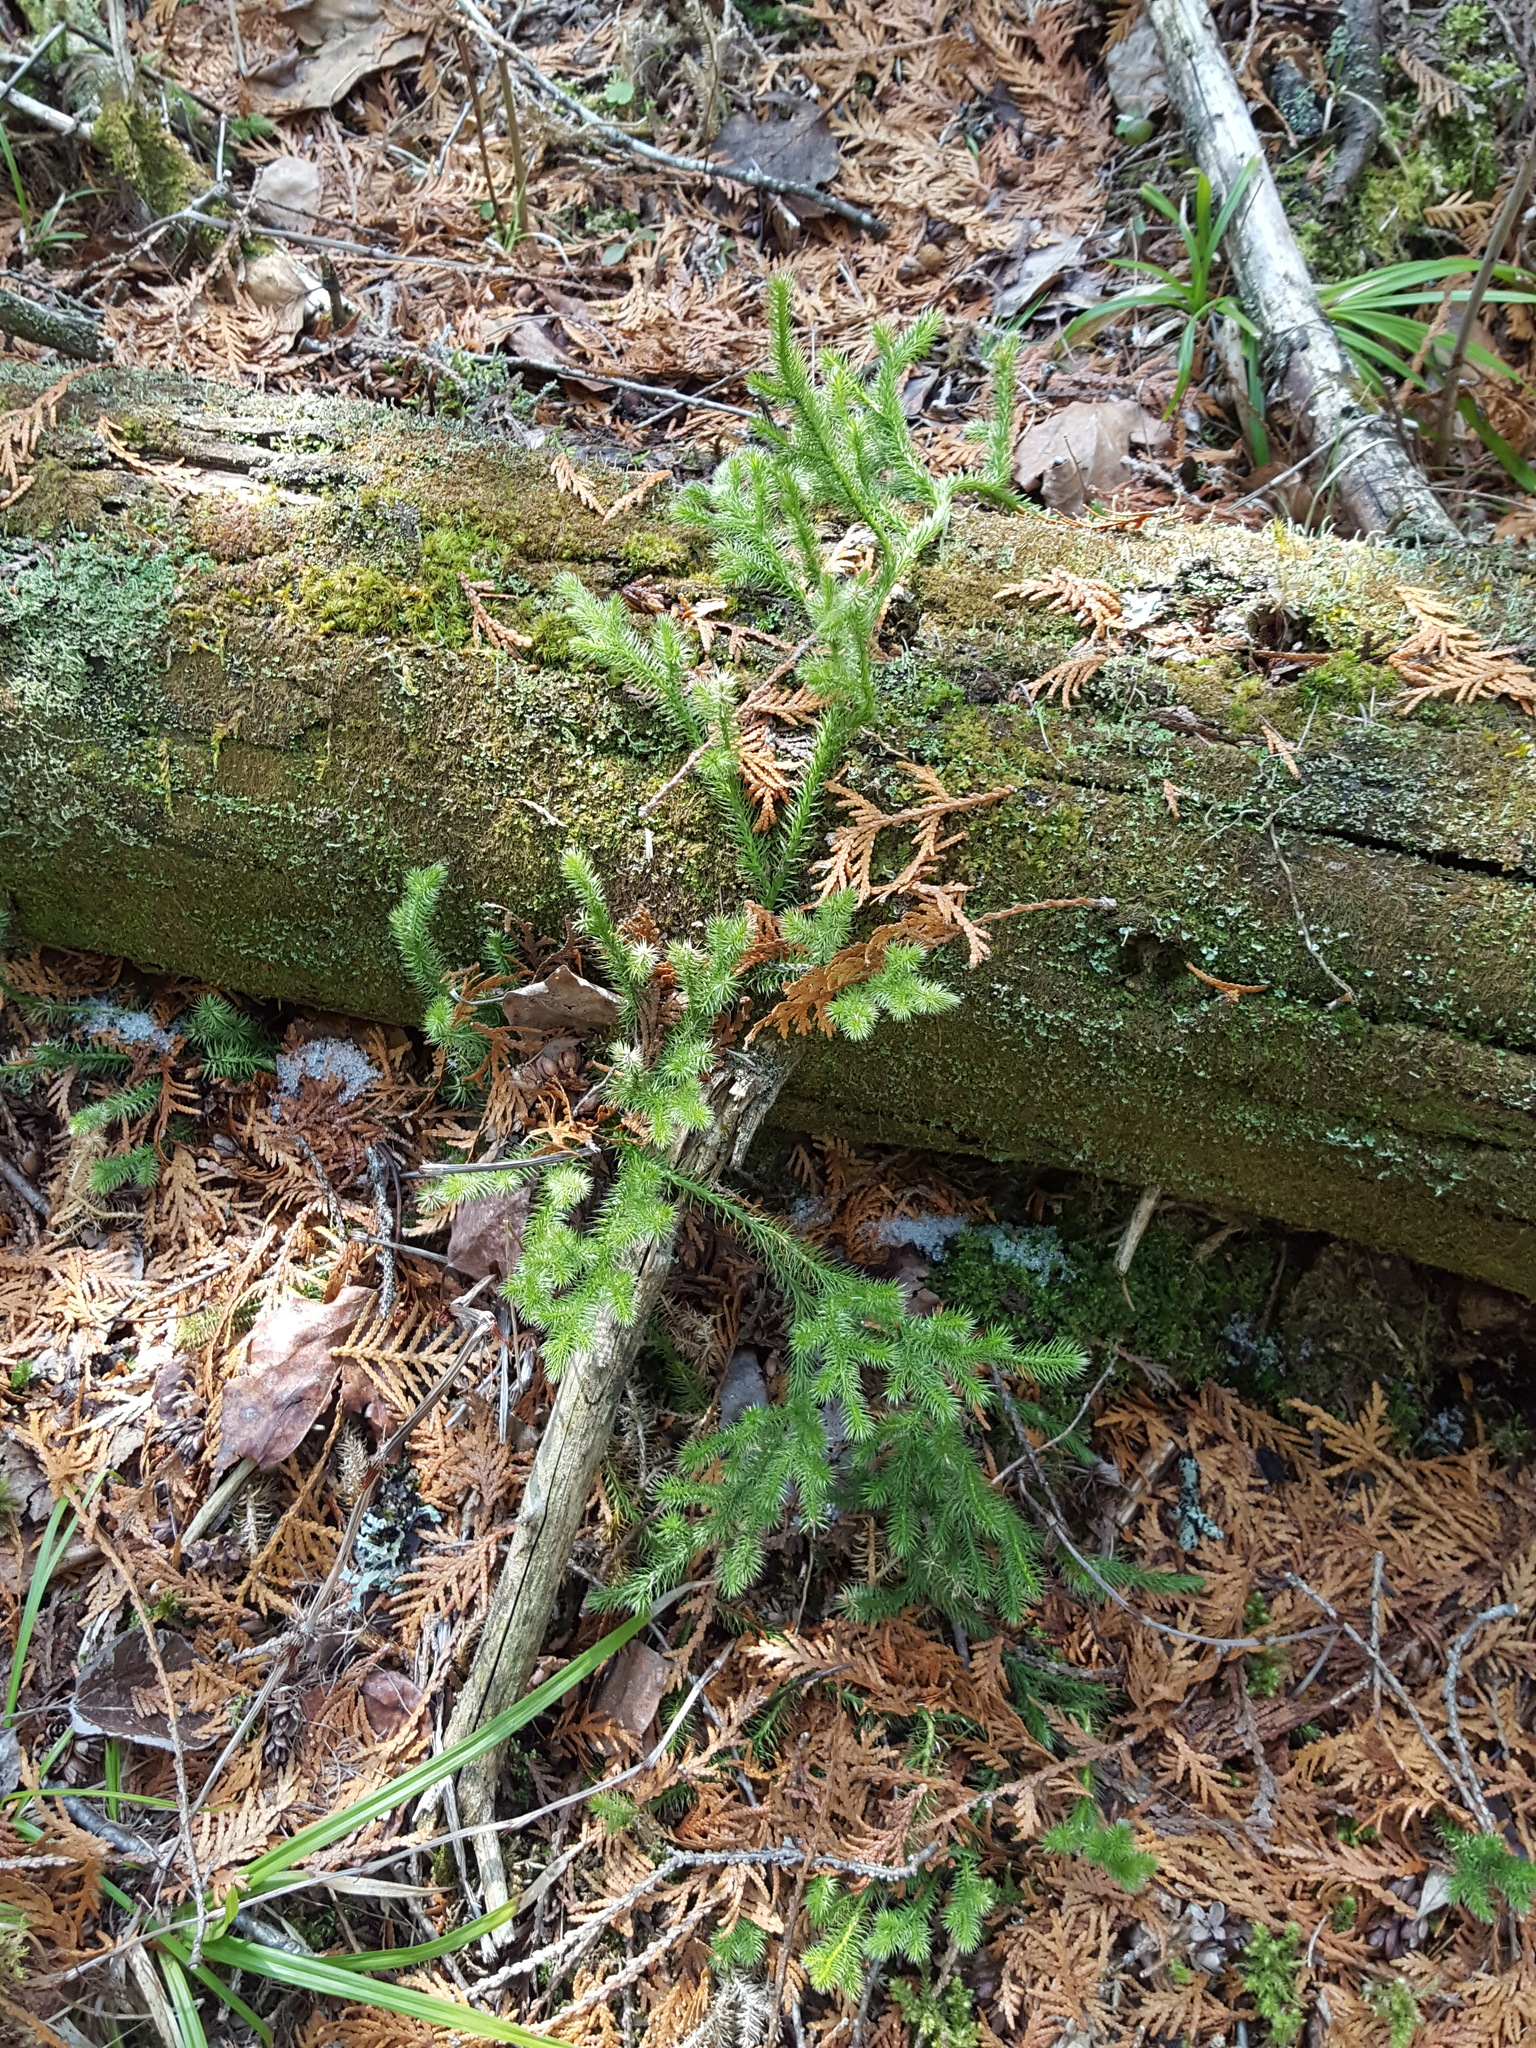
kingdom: Plantae
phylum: Tracheophyta
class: Lycopodiopsida
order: Lycopodiales
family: Lycopodiaceae
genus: Lycopodium
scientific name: Lycopodium clavatum
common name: Stag's-horn clubmoss
